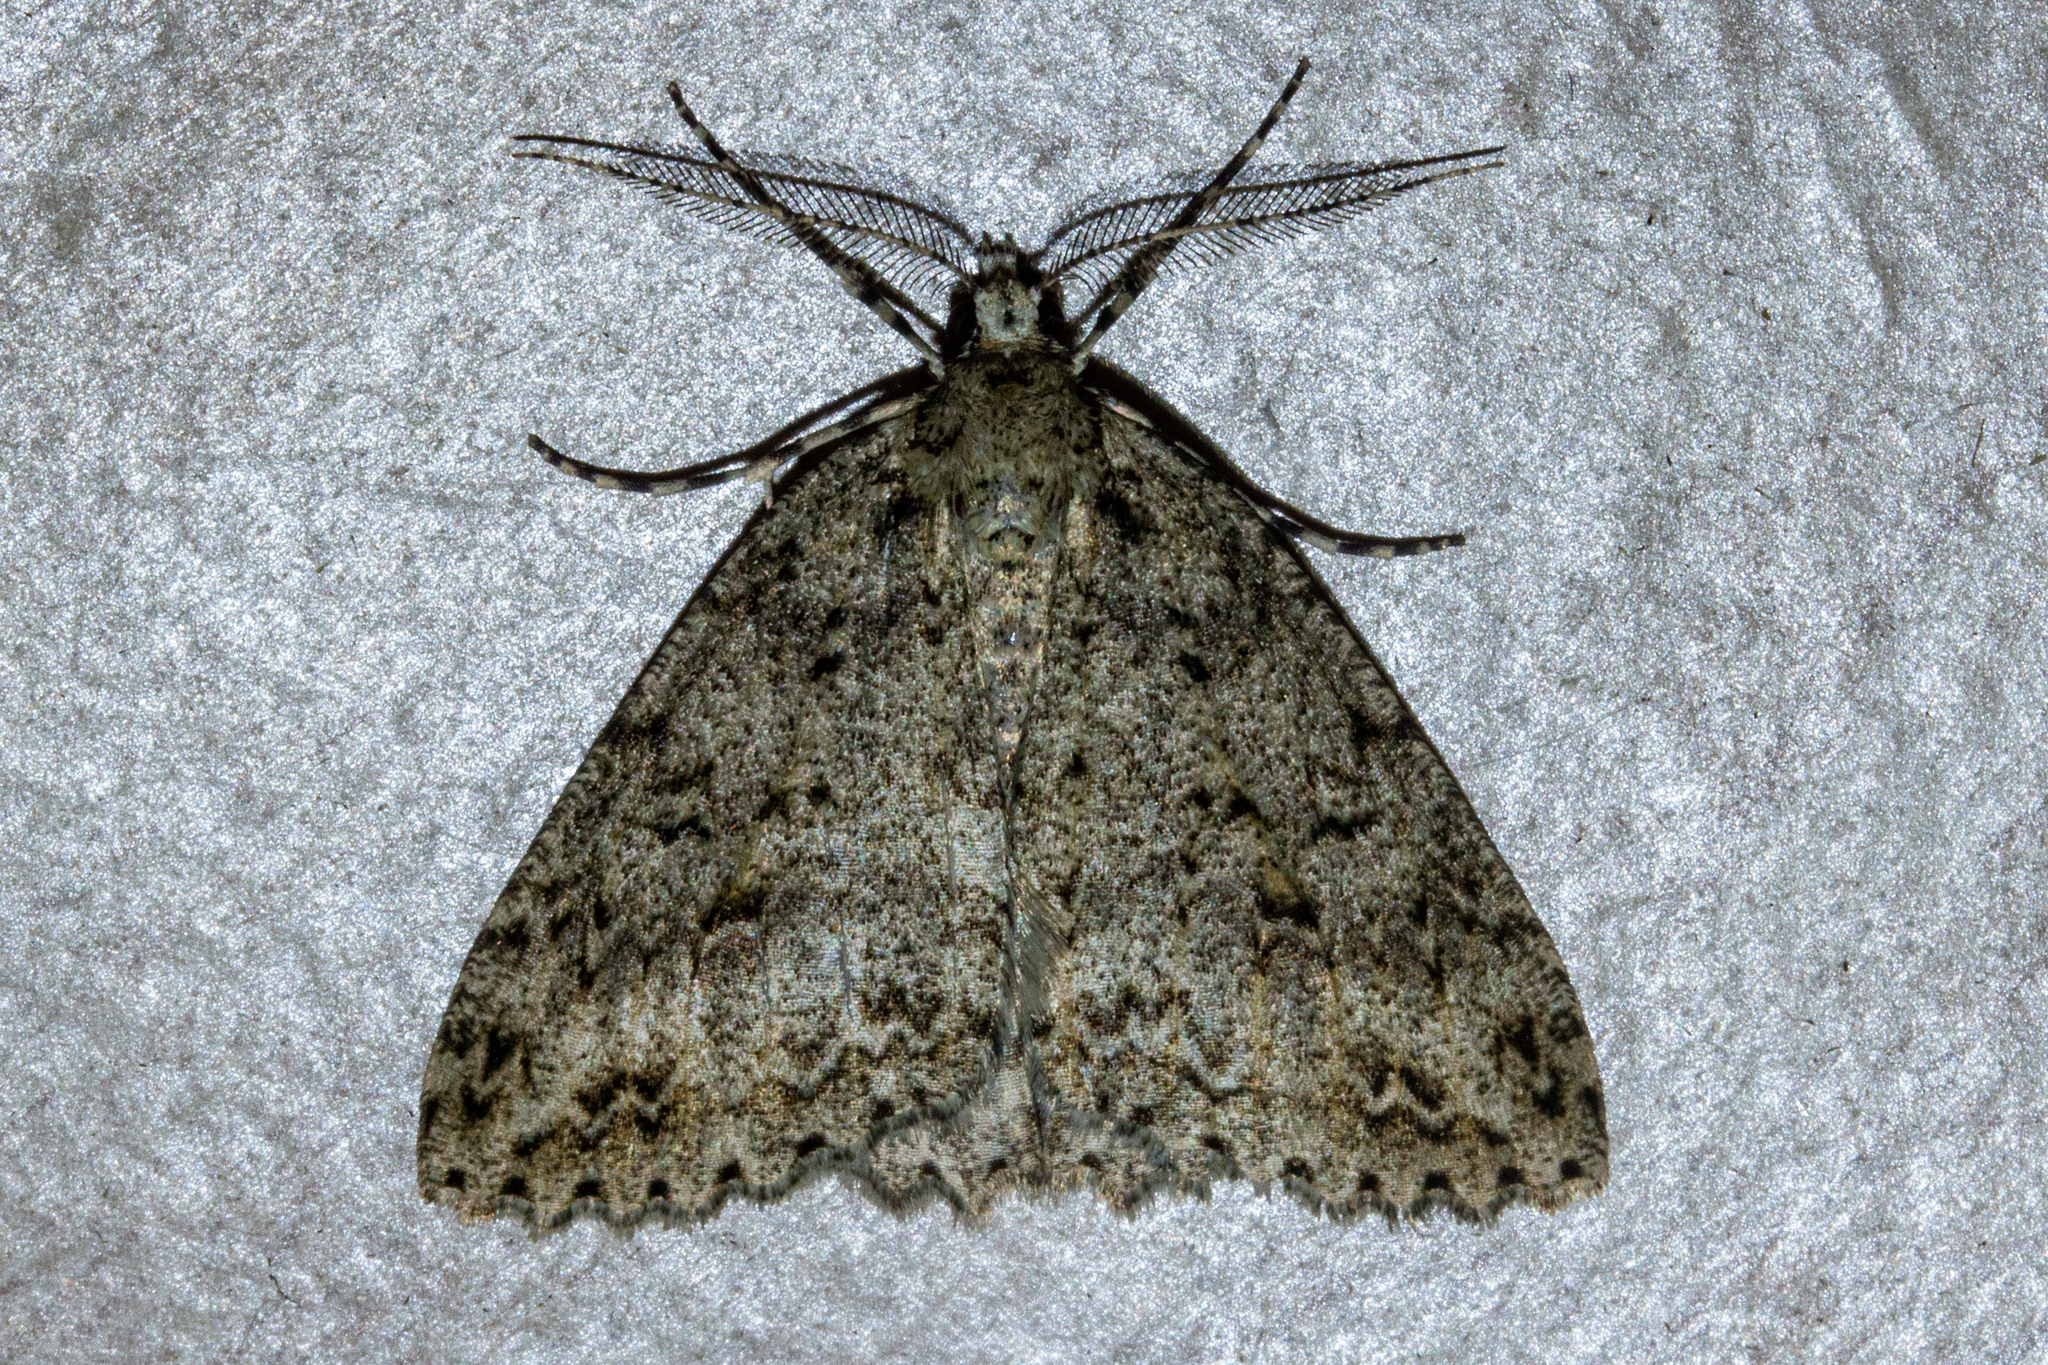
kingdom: Animalia
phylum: Arthropoda
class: Insecta
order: Lepidoptera
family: Geometridae
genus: Pseudocoremia
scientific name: Pseudocoremia rudisata
